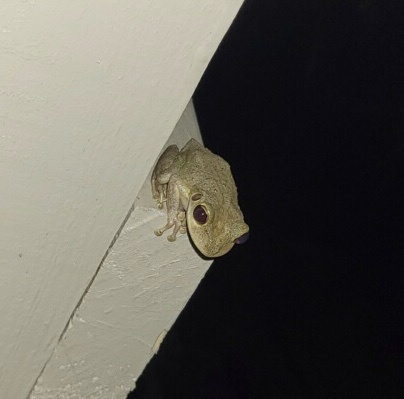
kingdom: Animalia
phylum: Chordata
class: Amphibia
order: Anura
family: Hylidae
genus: Osteopilus
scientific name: Osteopilus septentrionalis
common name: Cuban treefrog
